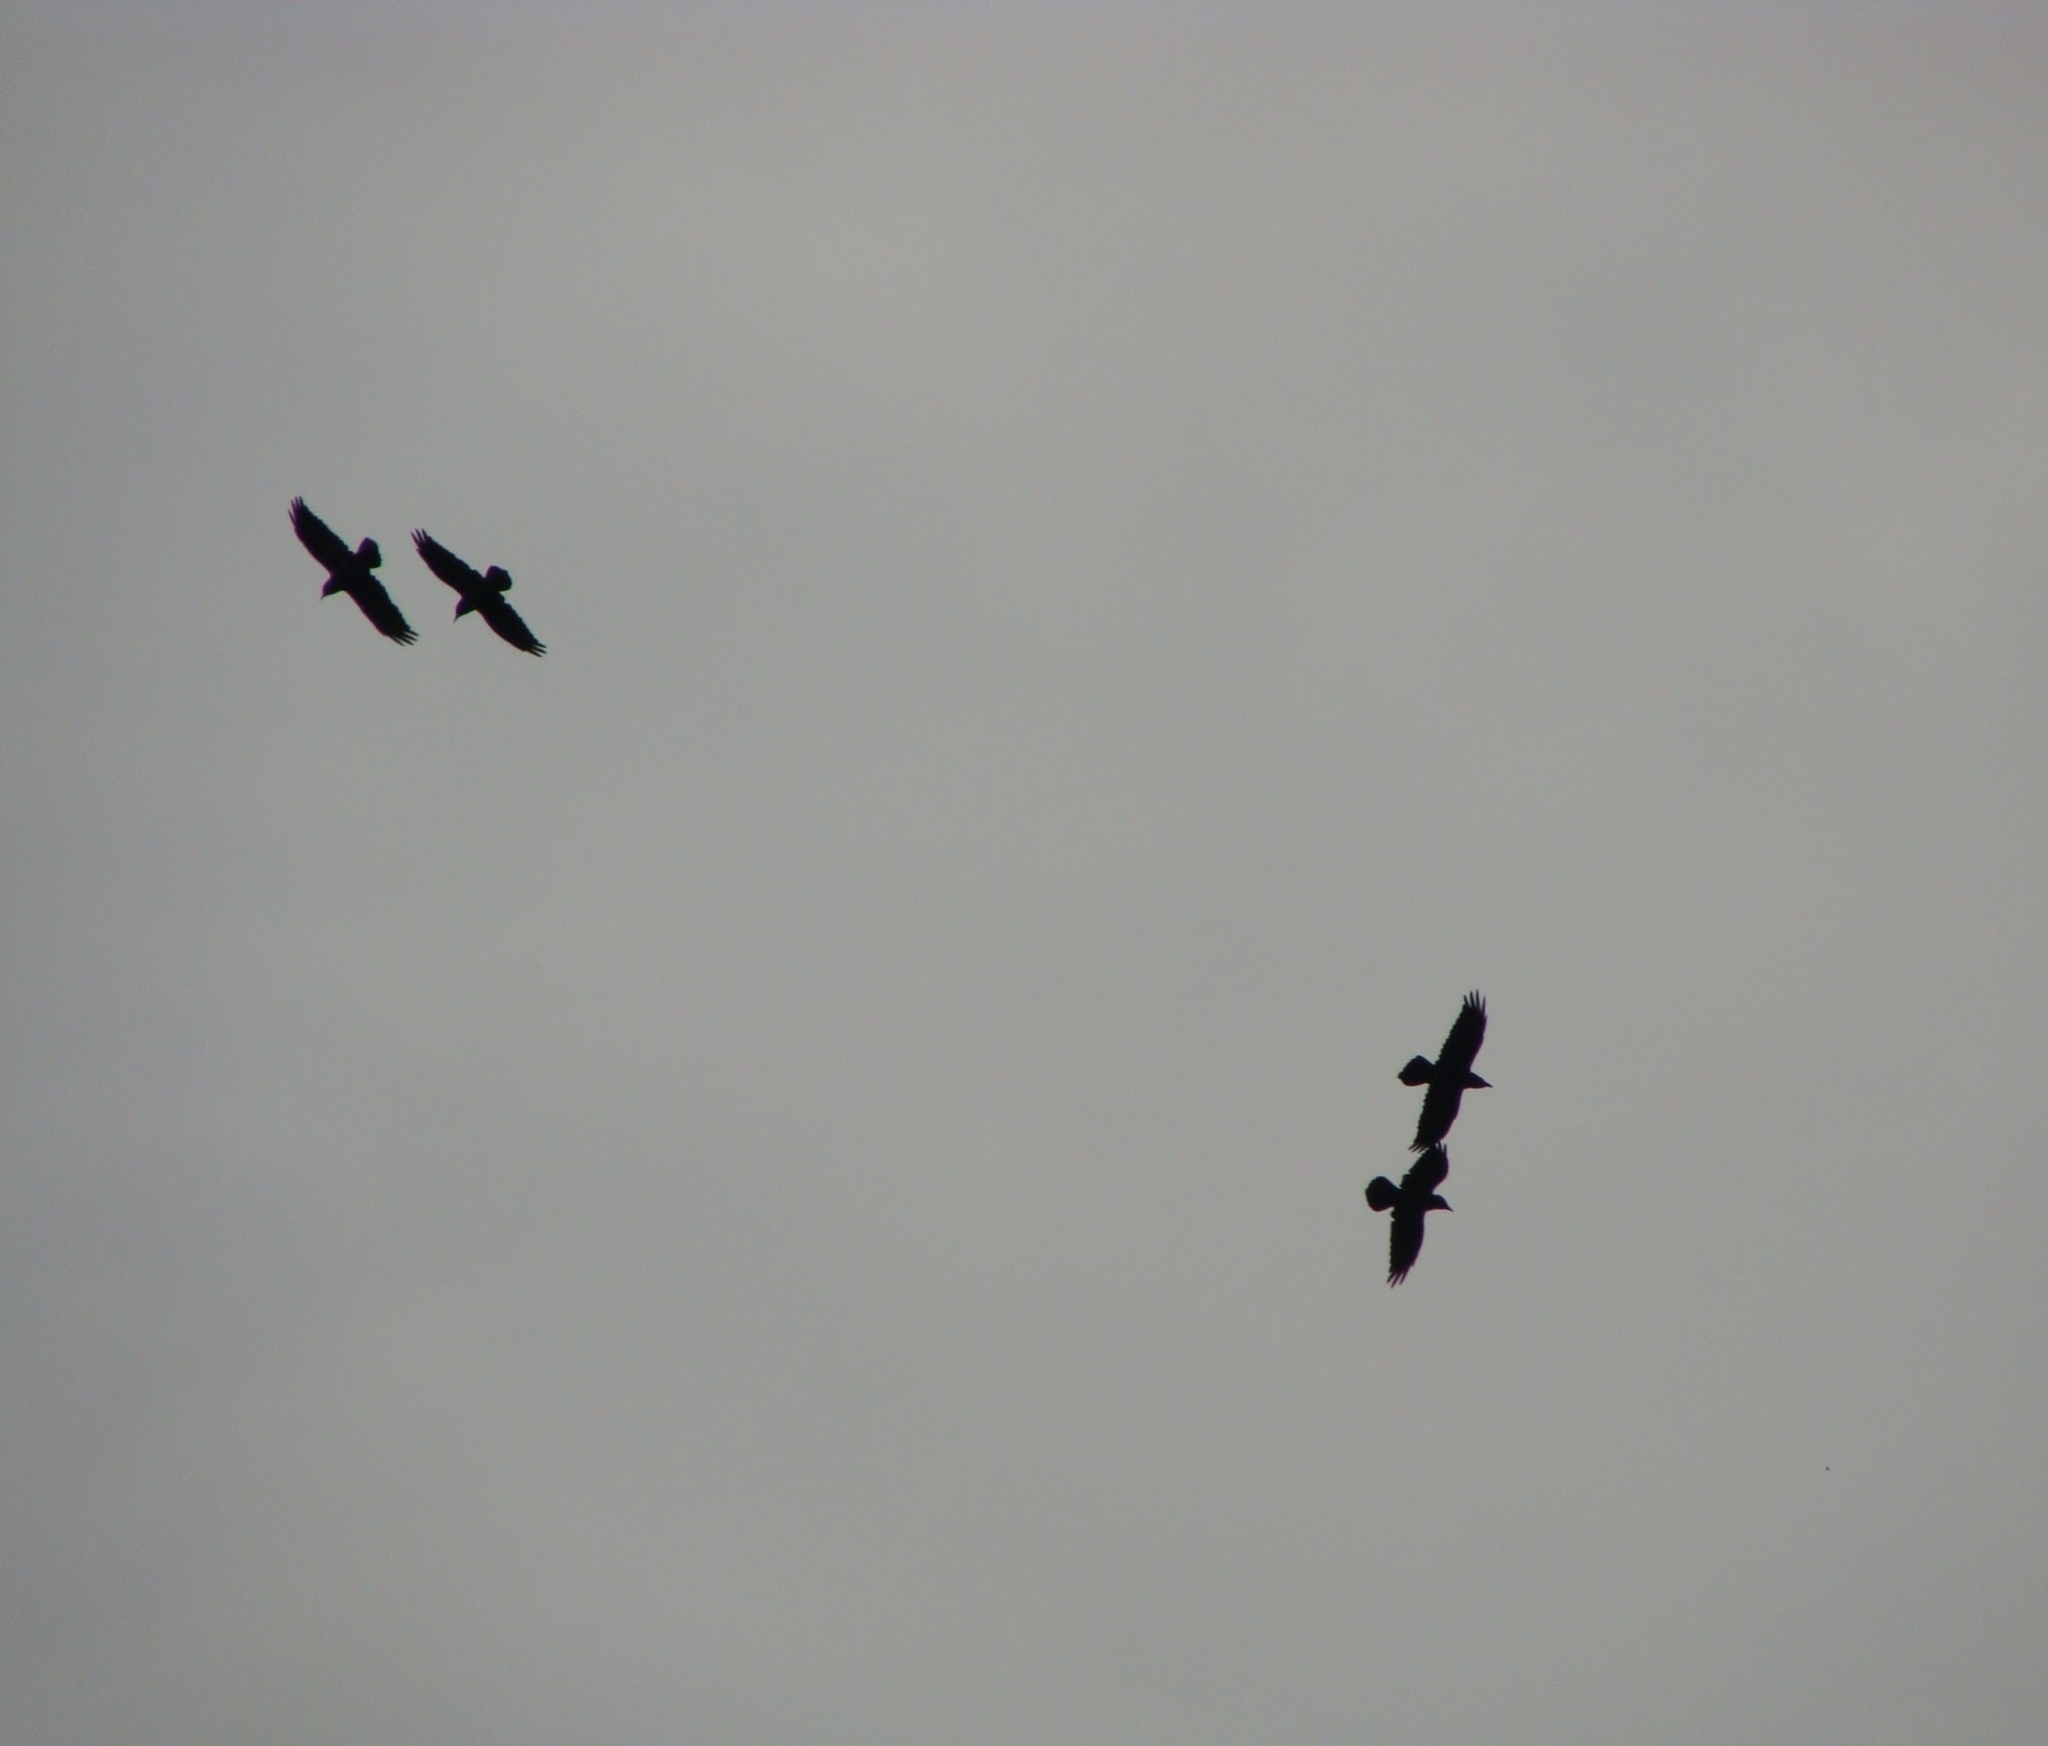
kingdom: Animalia
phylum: Chordata
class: Aves
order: Passeriformes
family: Corvidae
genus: Corvus
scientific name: Corvus corax
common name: Common raven
